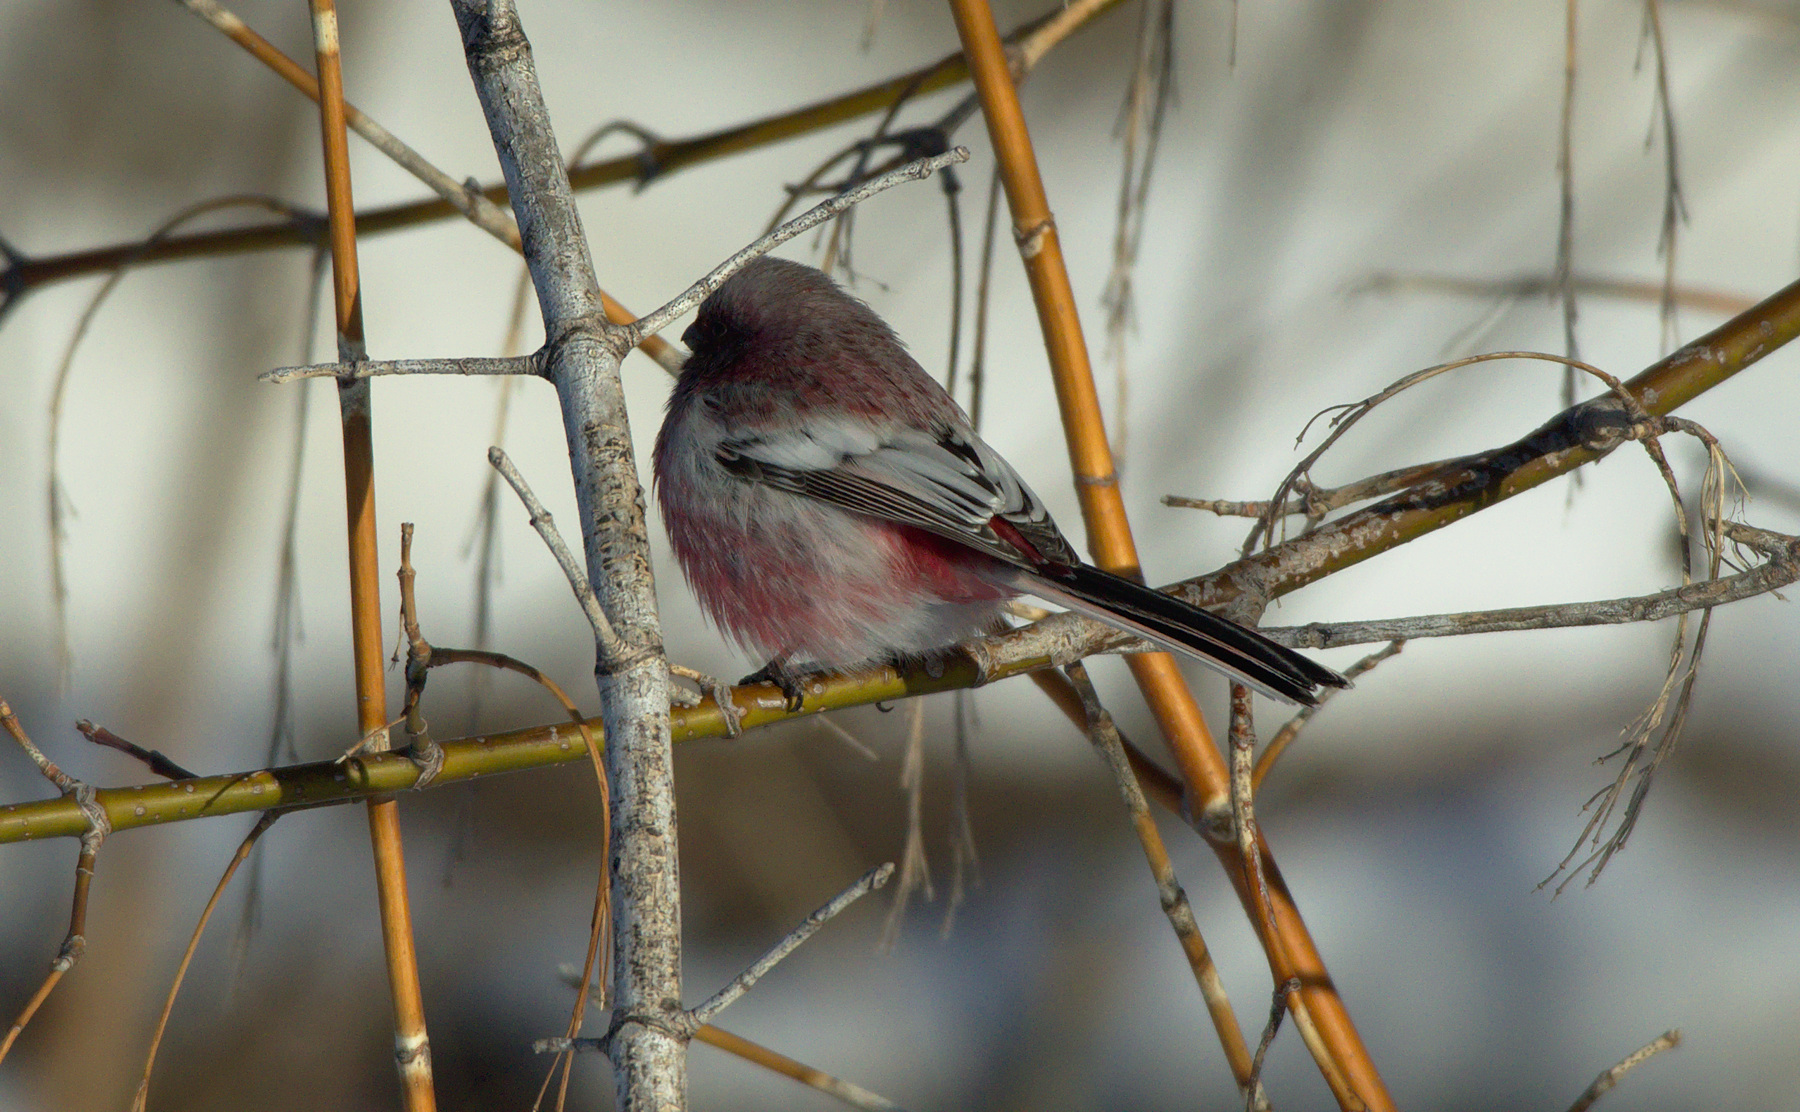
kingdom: Animalia
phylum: Chordata
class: Aves
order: Passeriformes
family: Fringillidae
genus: Carpodacus
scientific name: Carpodacus sibiricus
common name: Long-tailed rosefinch
